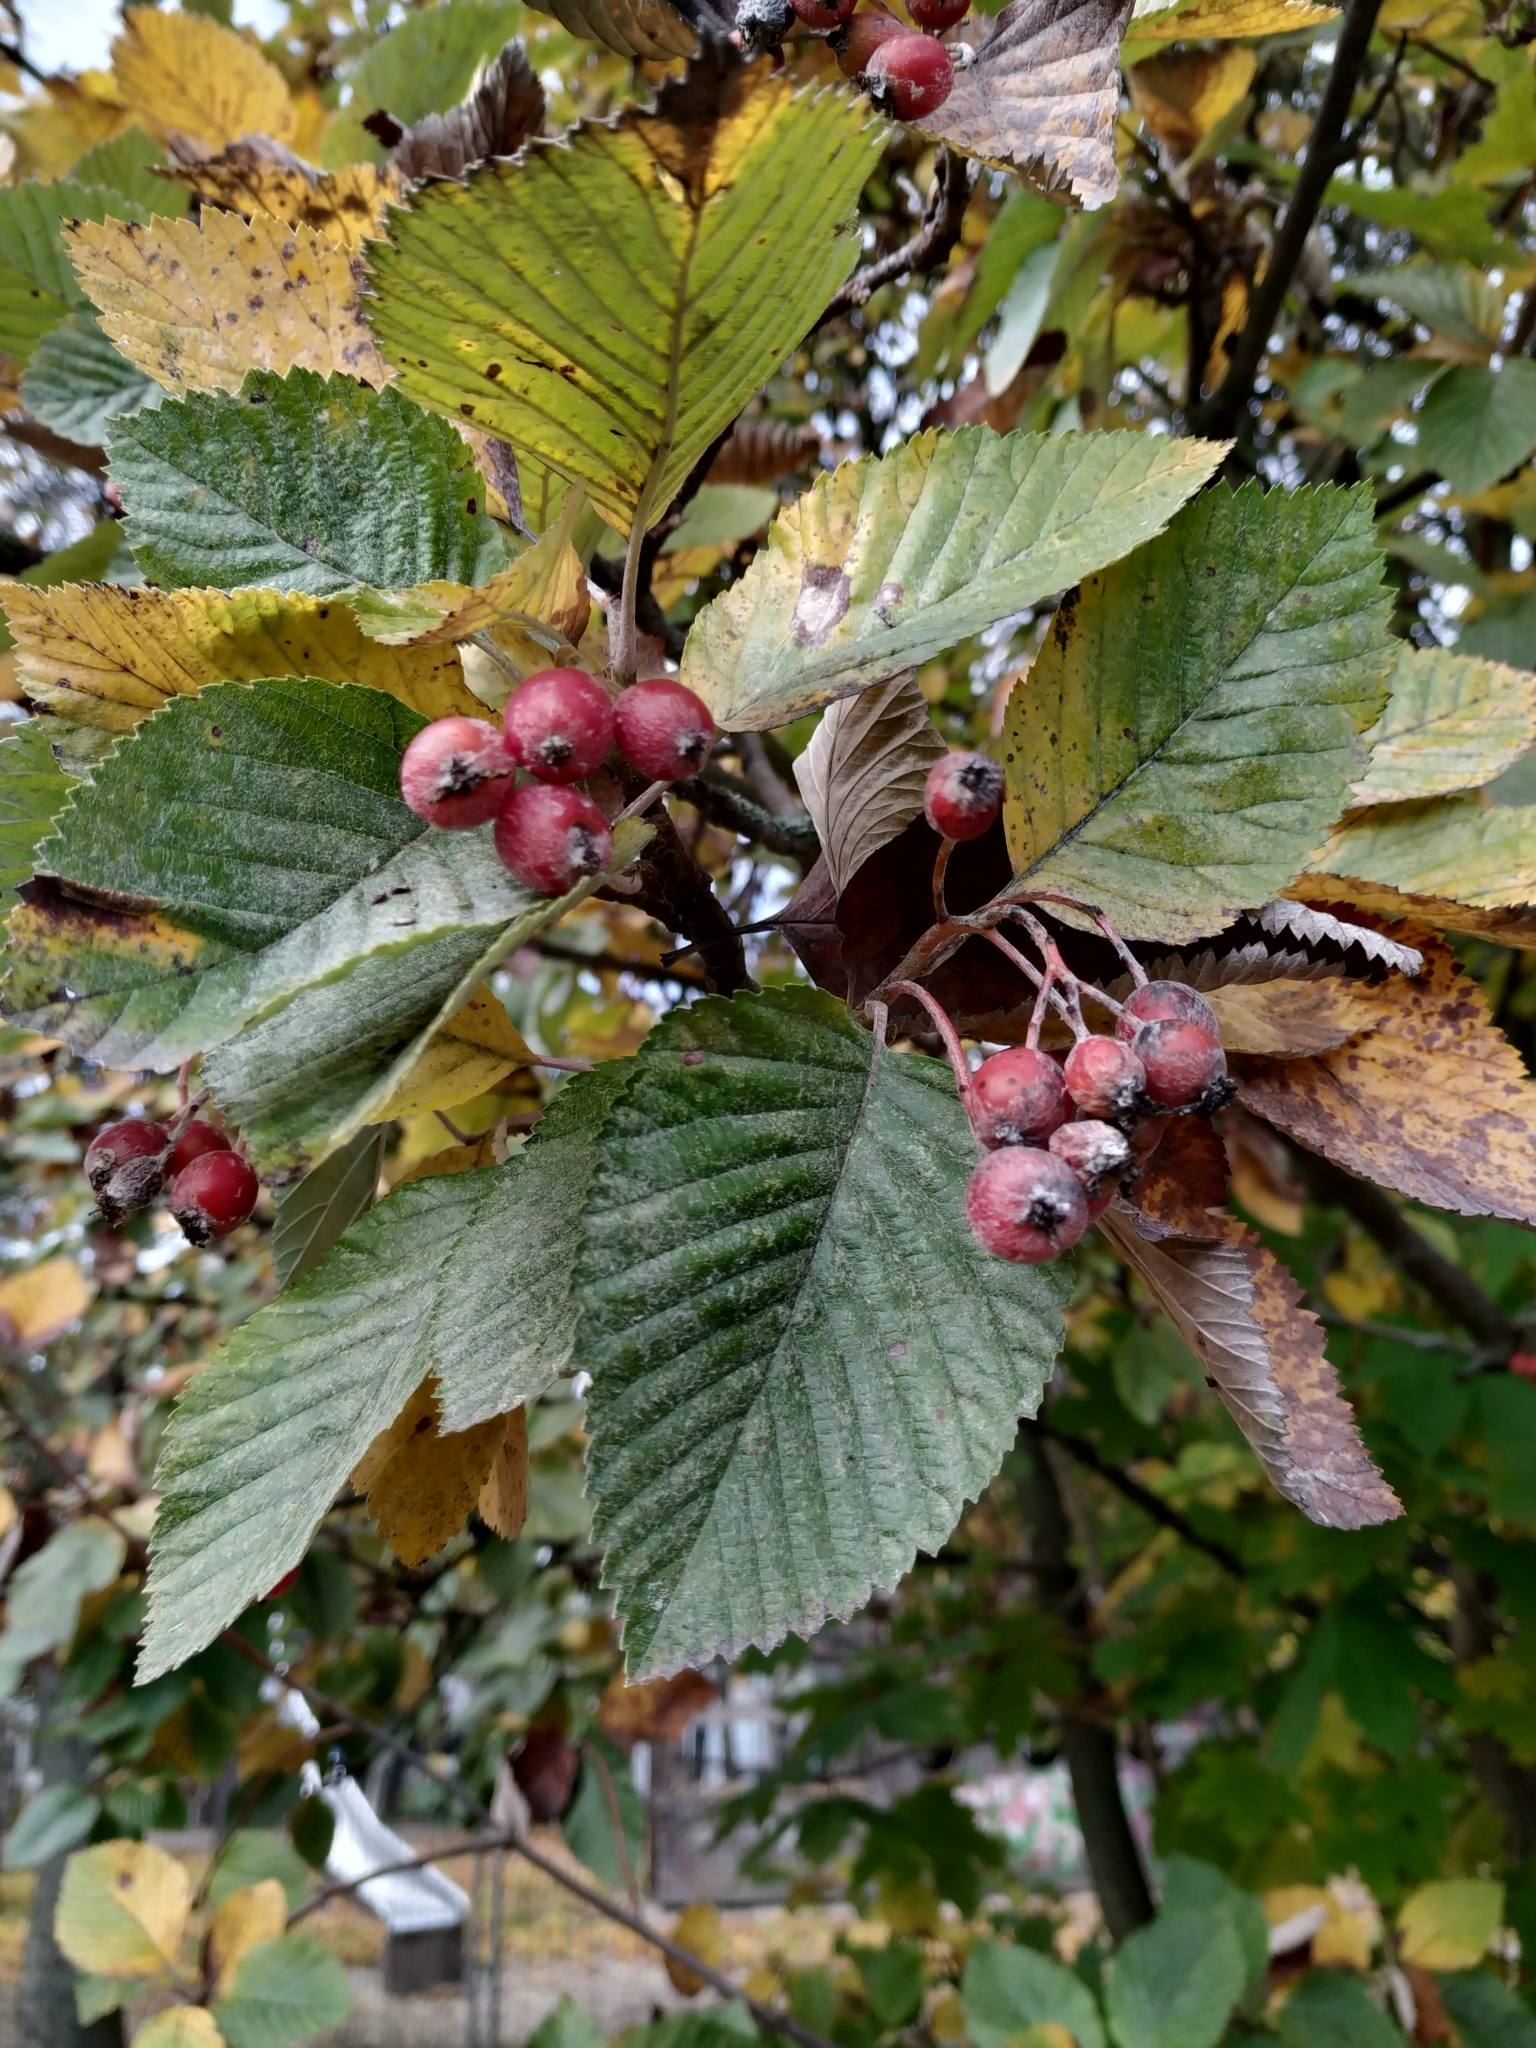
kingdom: Plantae
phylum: Tracheophyta
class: Magnoliopsida
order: Rosales
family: Rosaceae
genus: Aria
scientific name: Aria edulis
